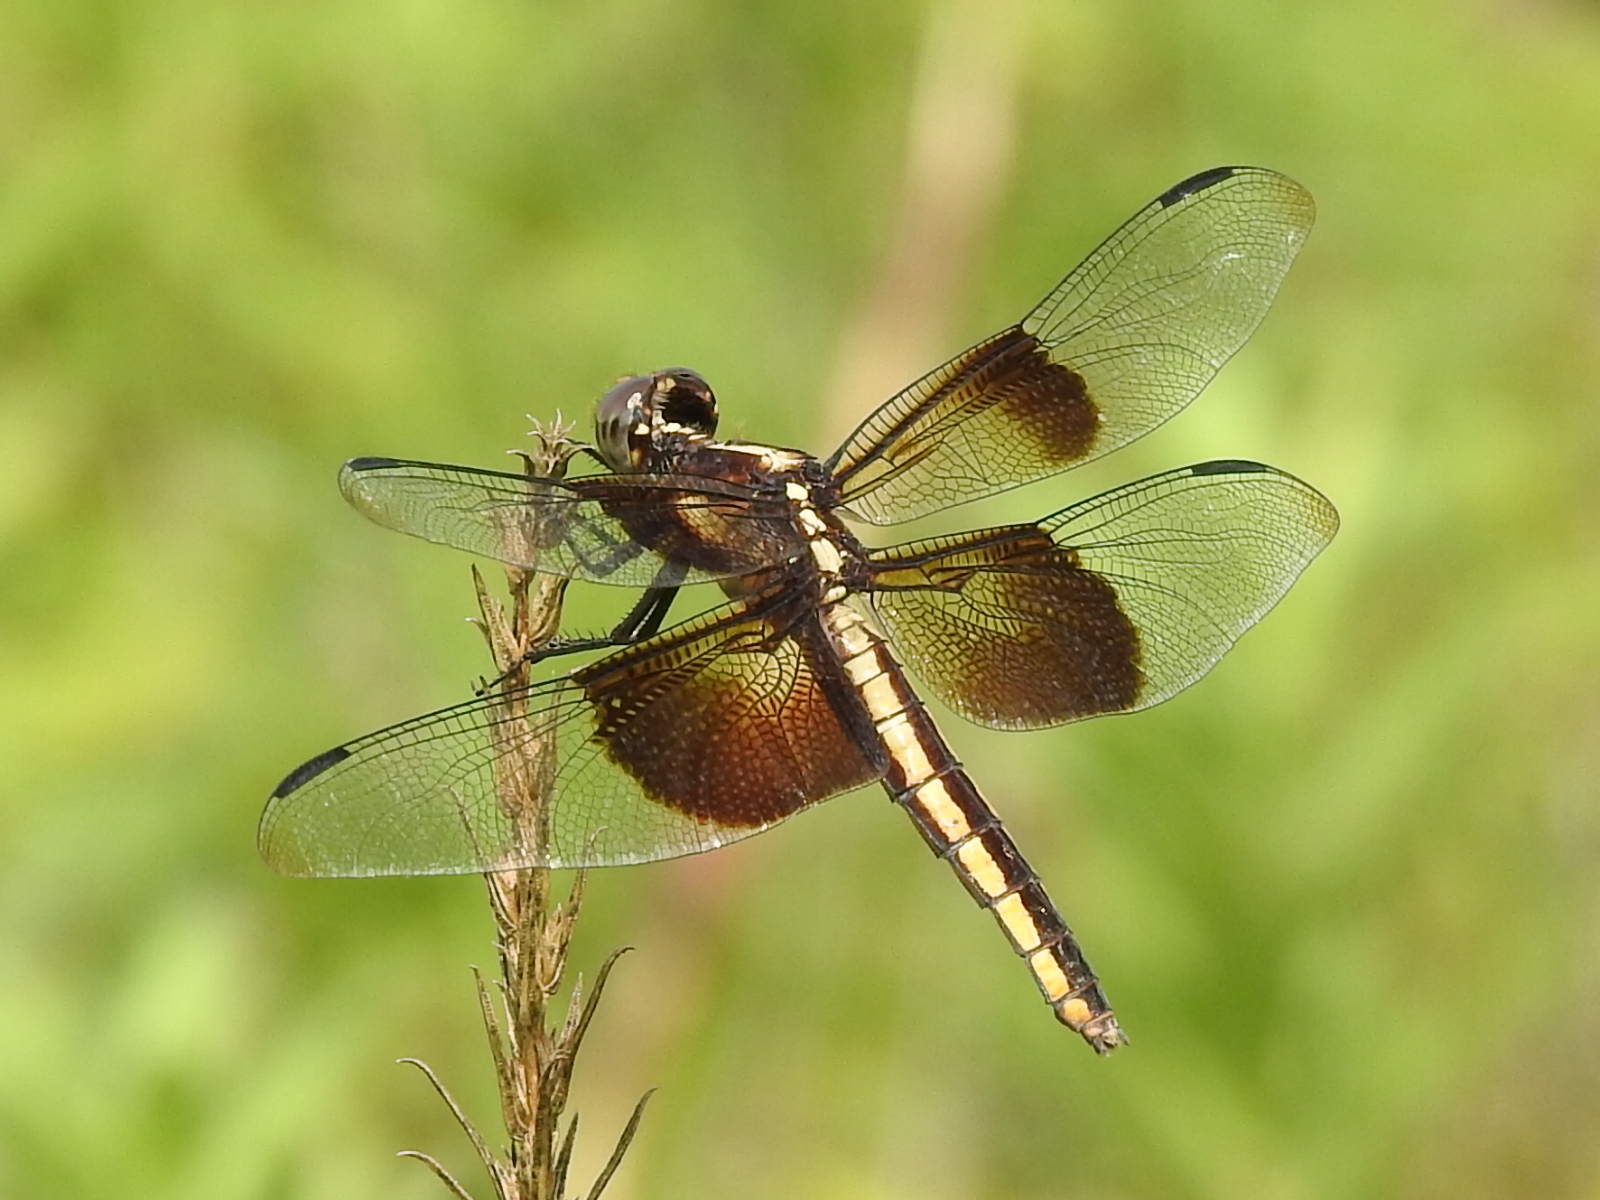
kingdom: Animalia
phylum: Arthropoda
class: Insecta
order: Odonata
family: Libellulidae
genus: Libellula
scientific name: Libellula luctuosa
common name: Widow skimmer
